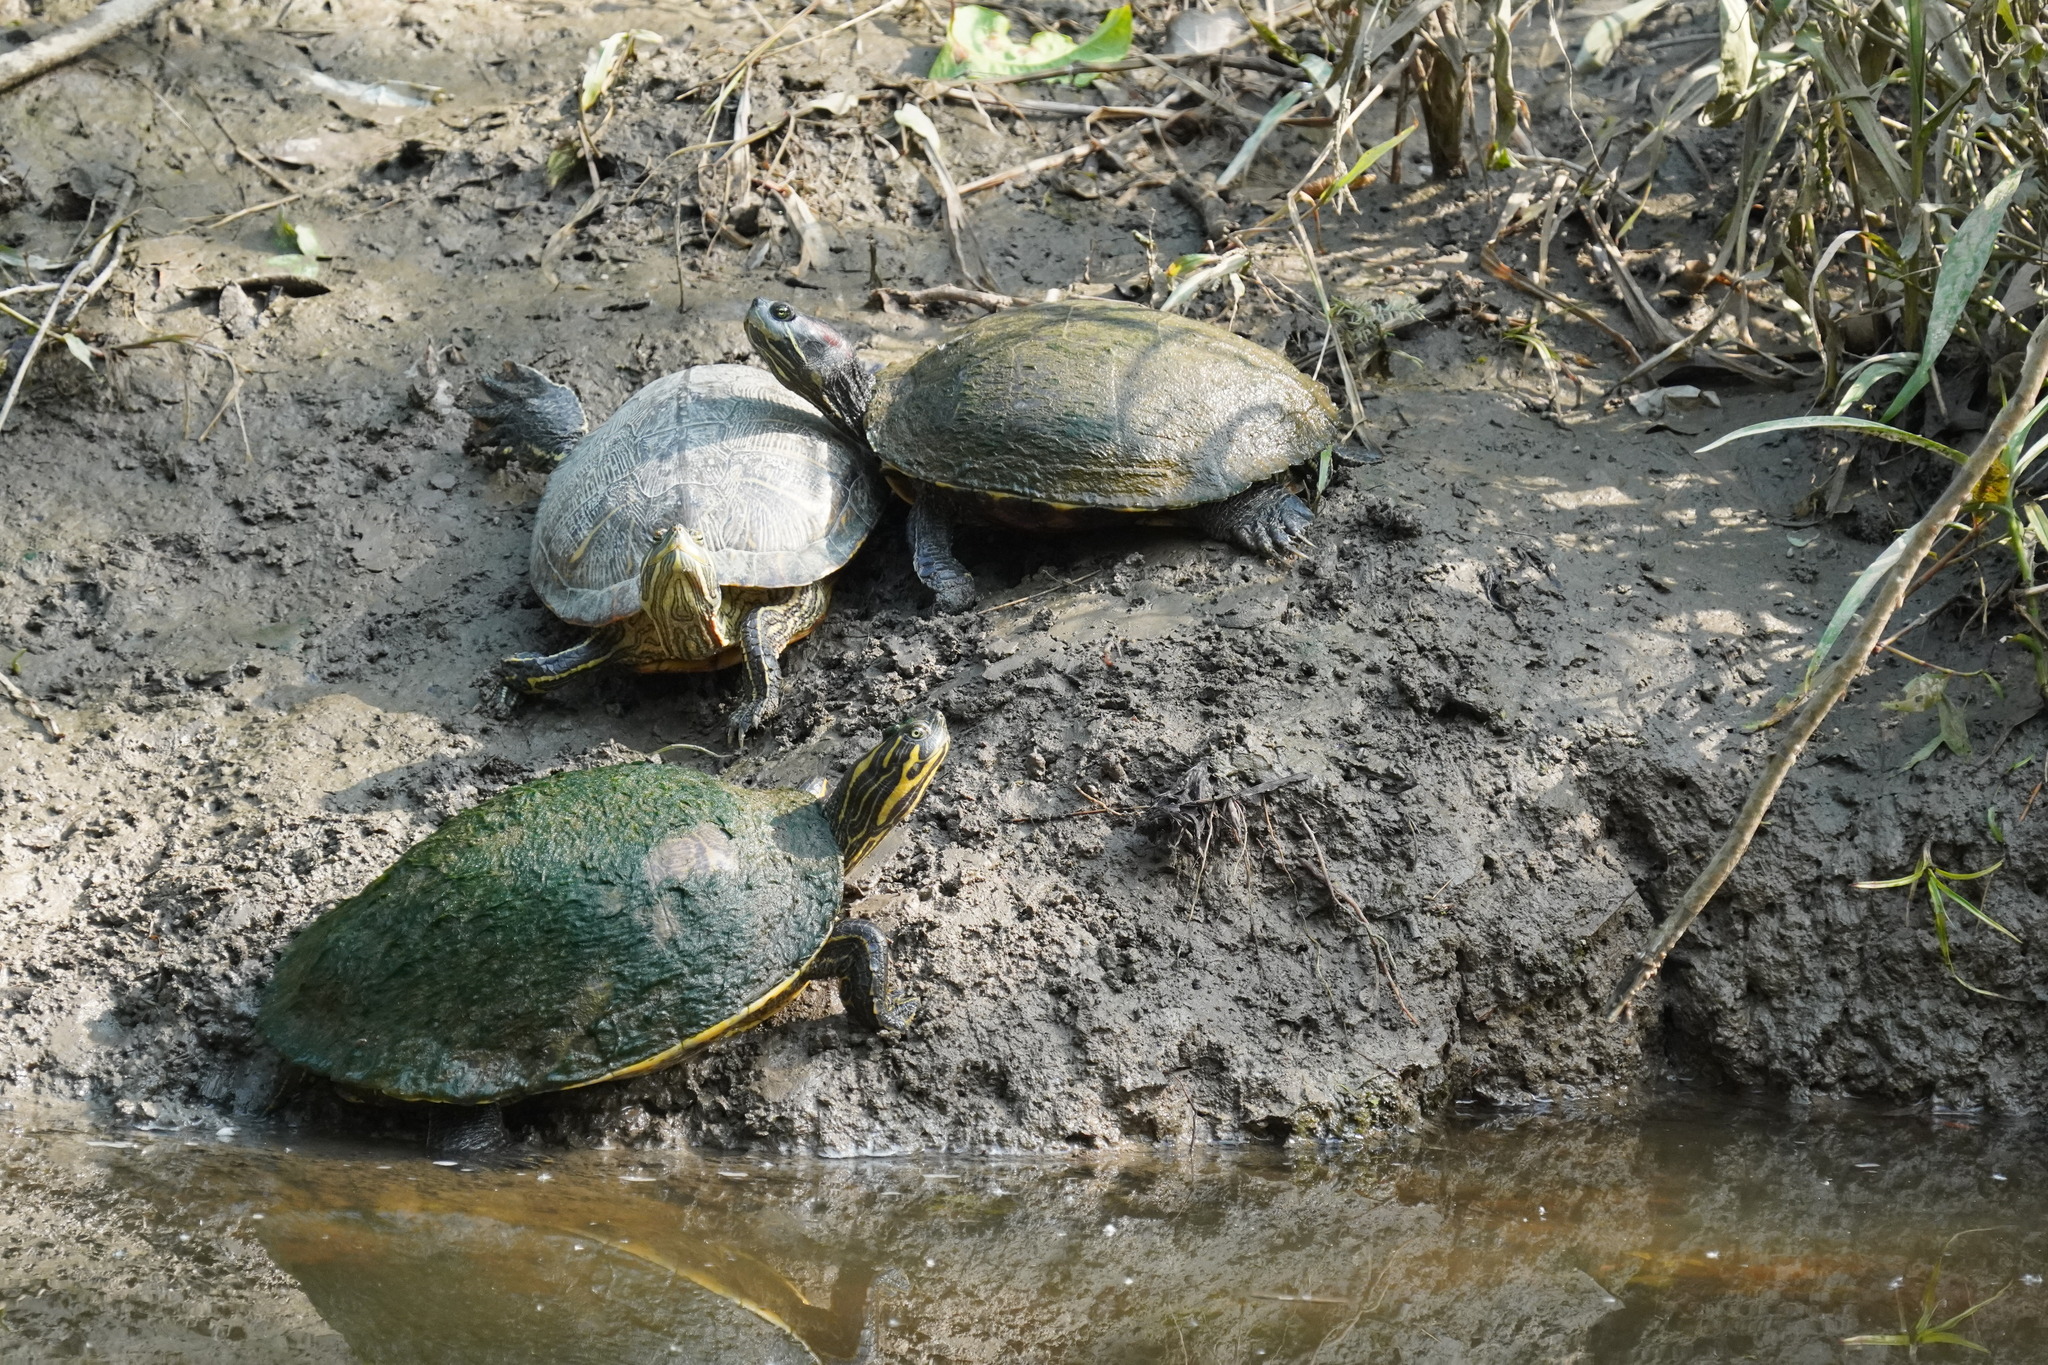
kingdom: Animalia
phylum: Chordata
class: Testudines
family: Emydidae
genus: Trachemys
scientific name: Trachemys scripta
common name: Slider
